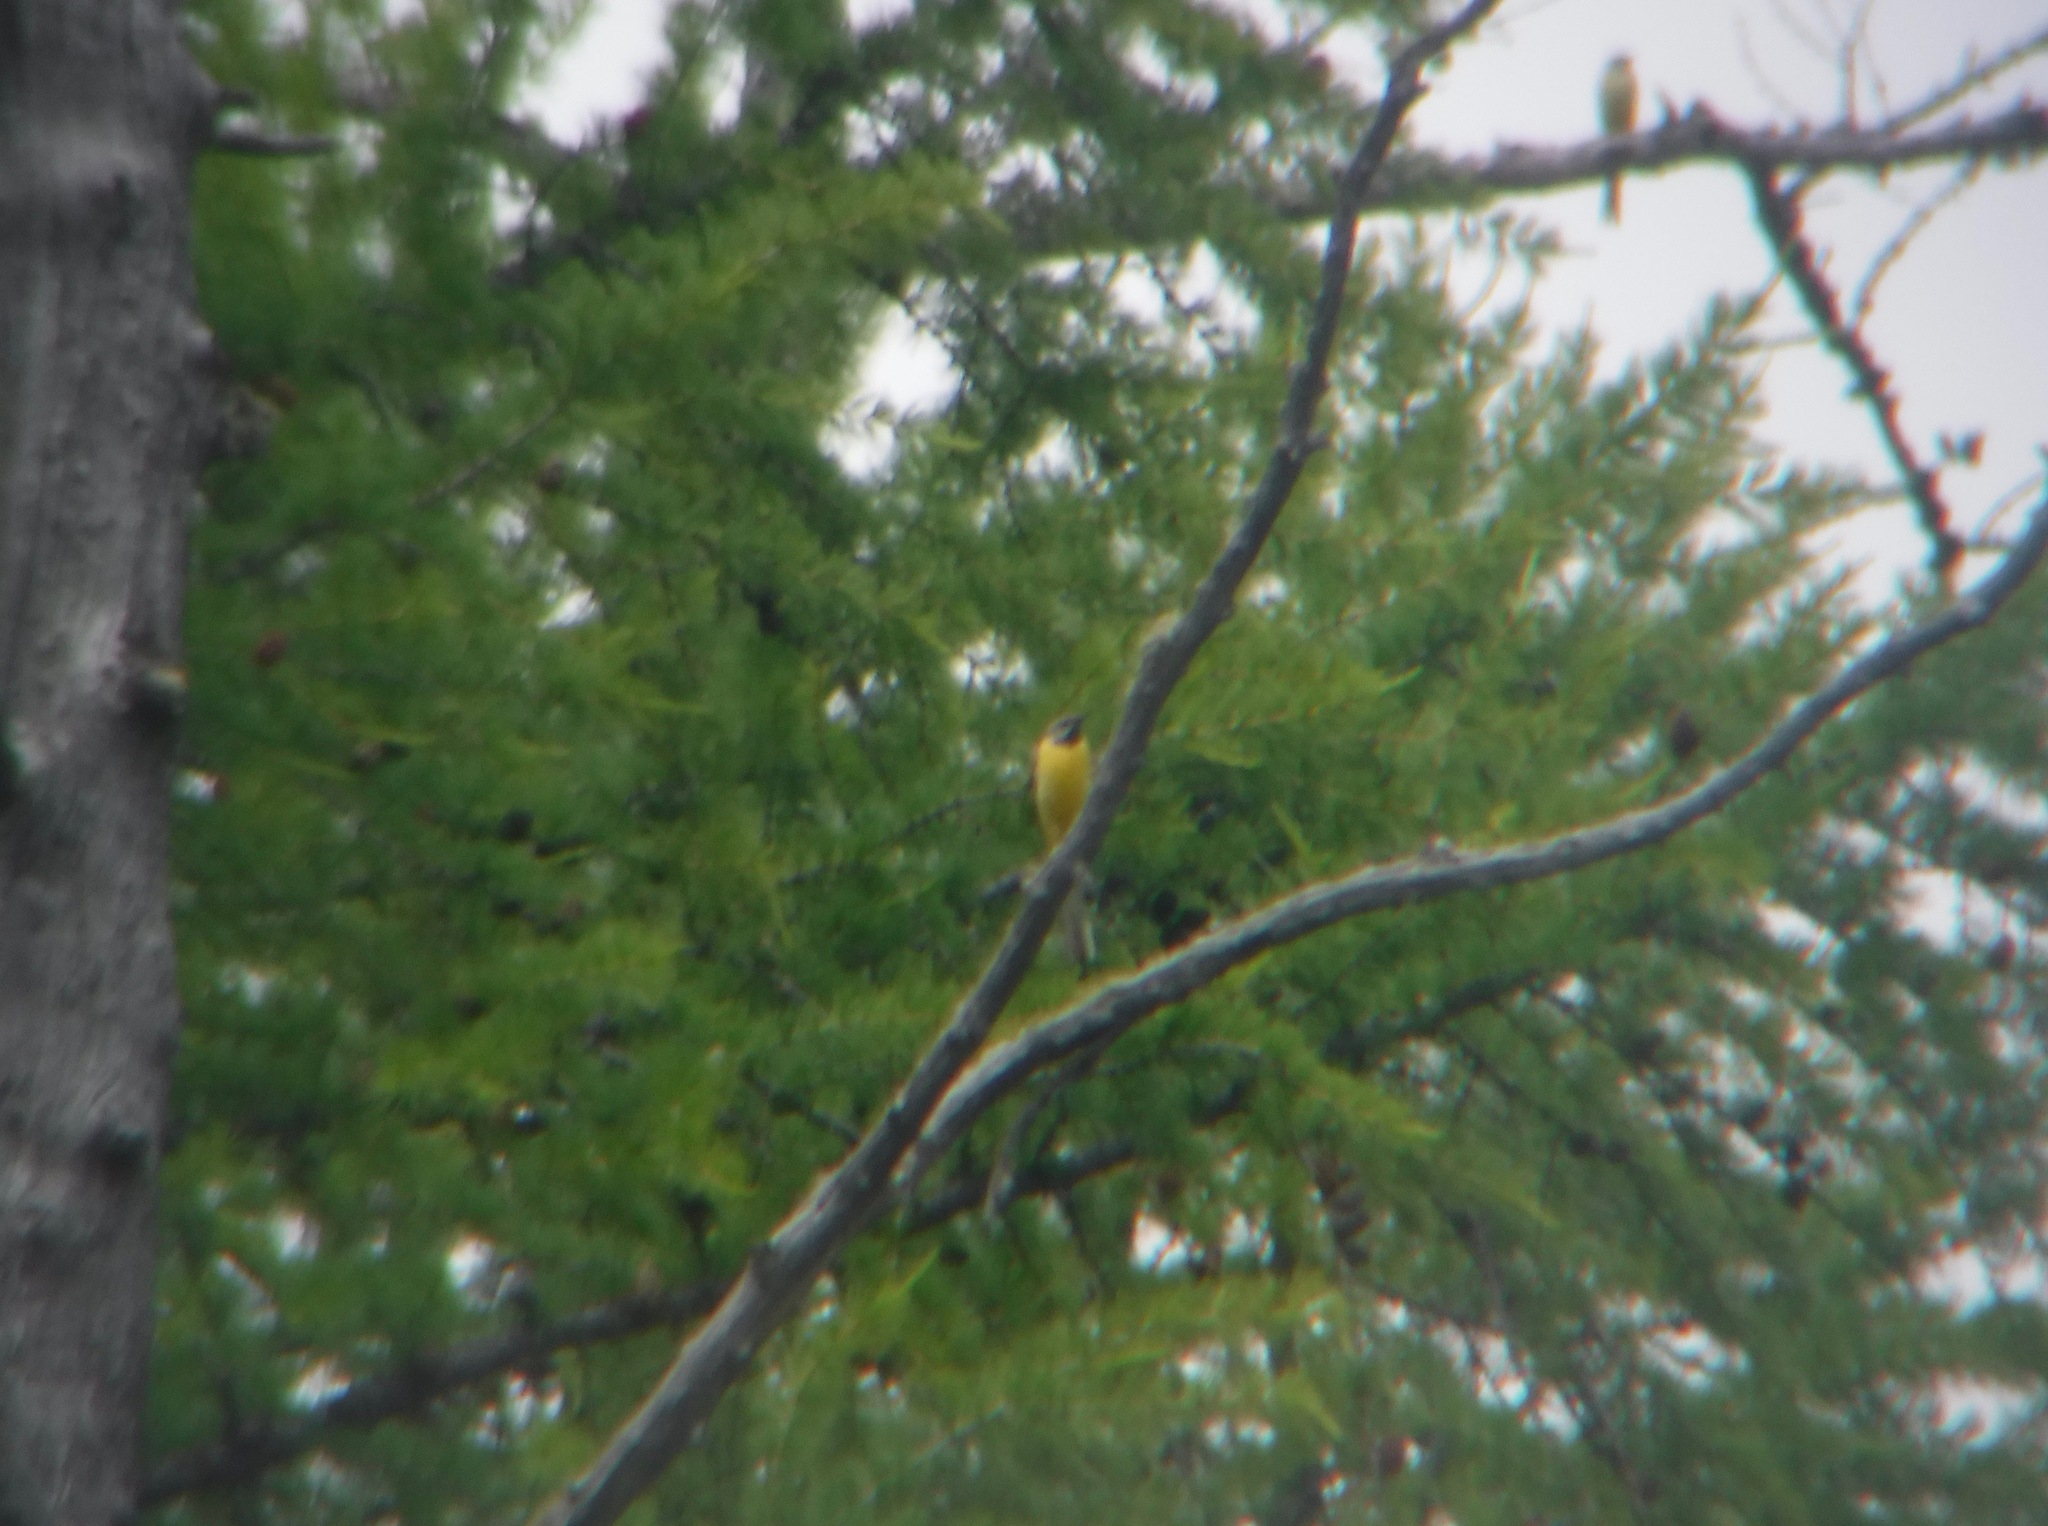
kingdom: Animalia
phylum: Chordata
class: Aves
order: Passeriformes
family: Motacillidae
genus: Motacilla
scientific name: Motacilla cinerea
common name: Grey wagtail
